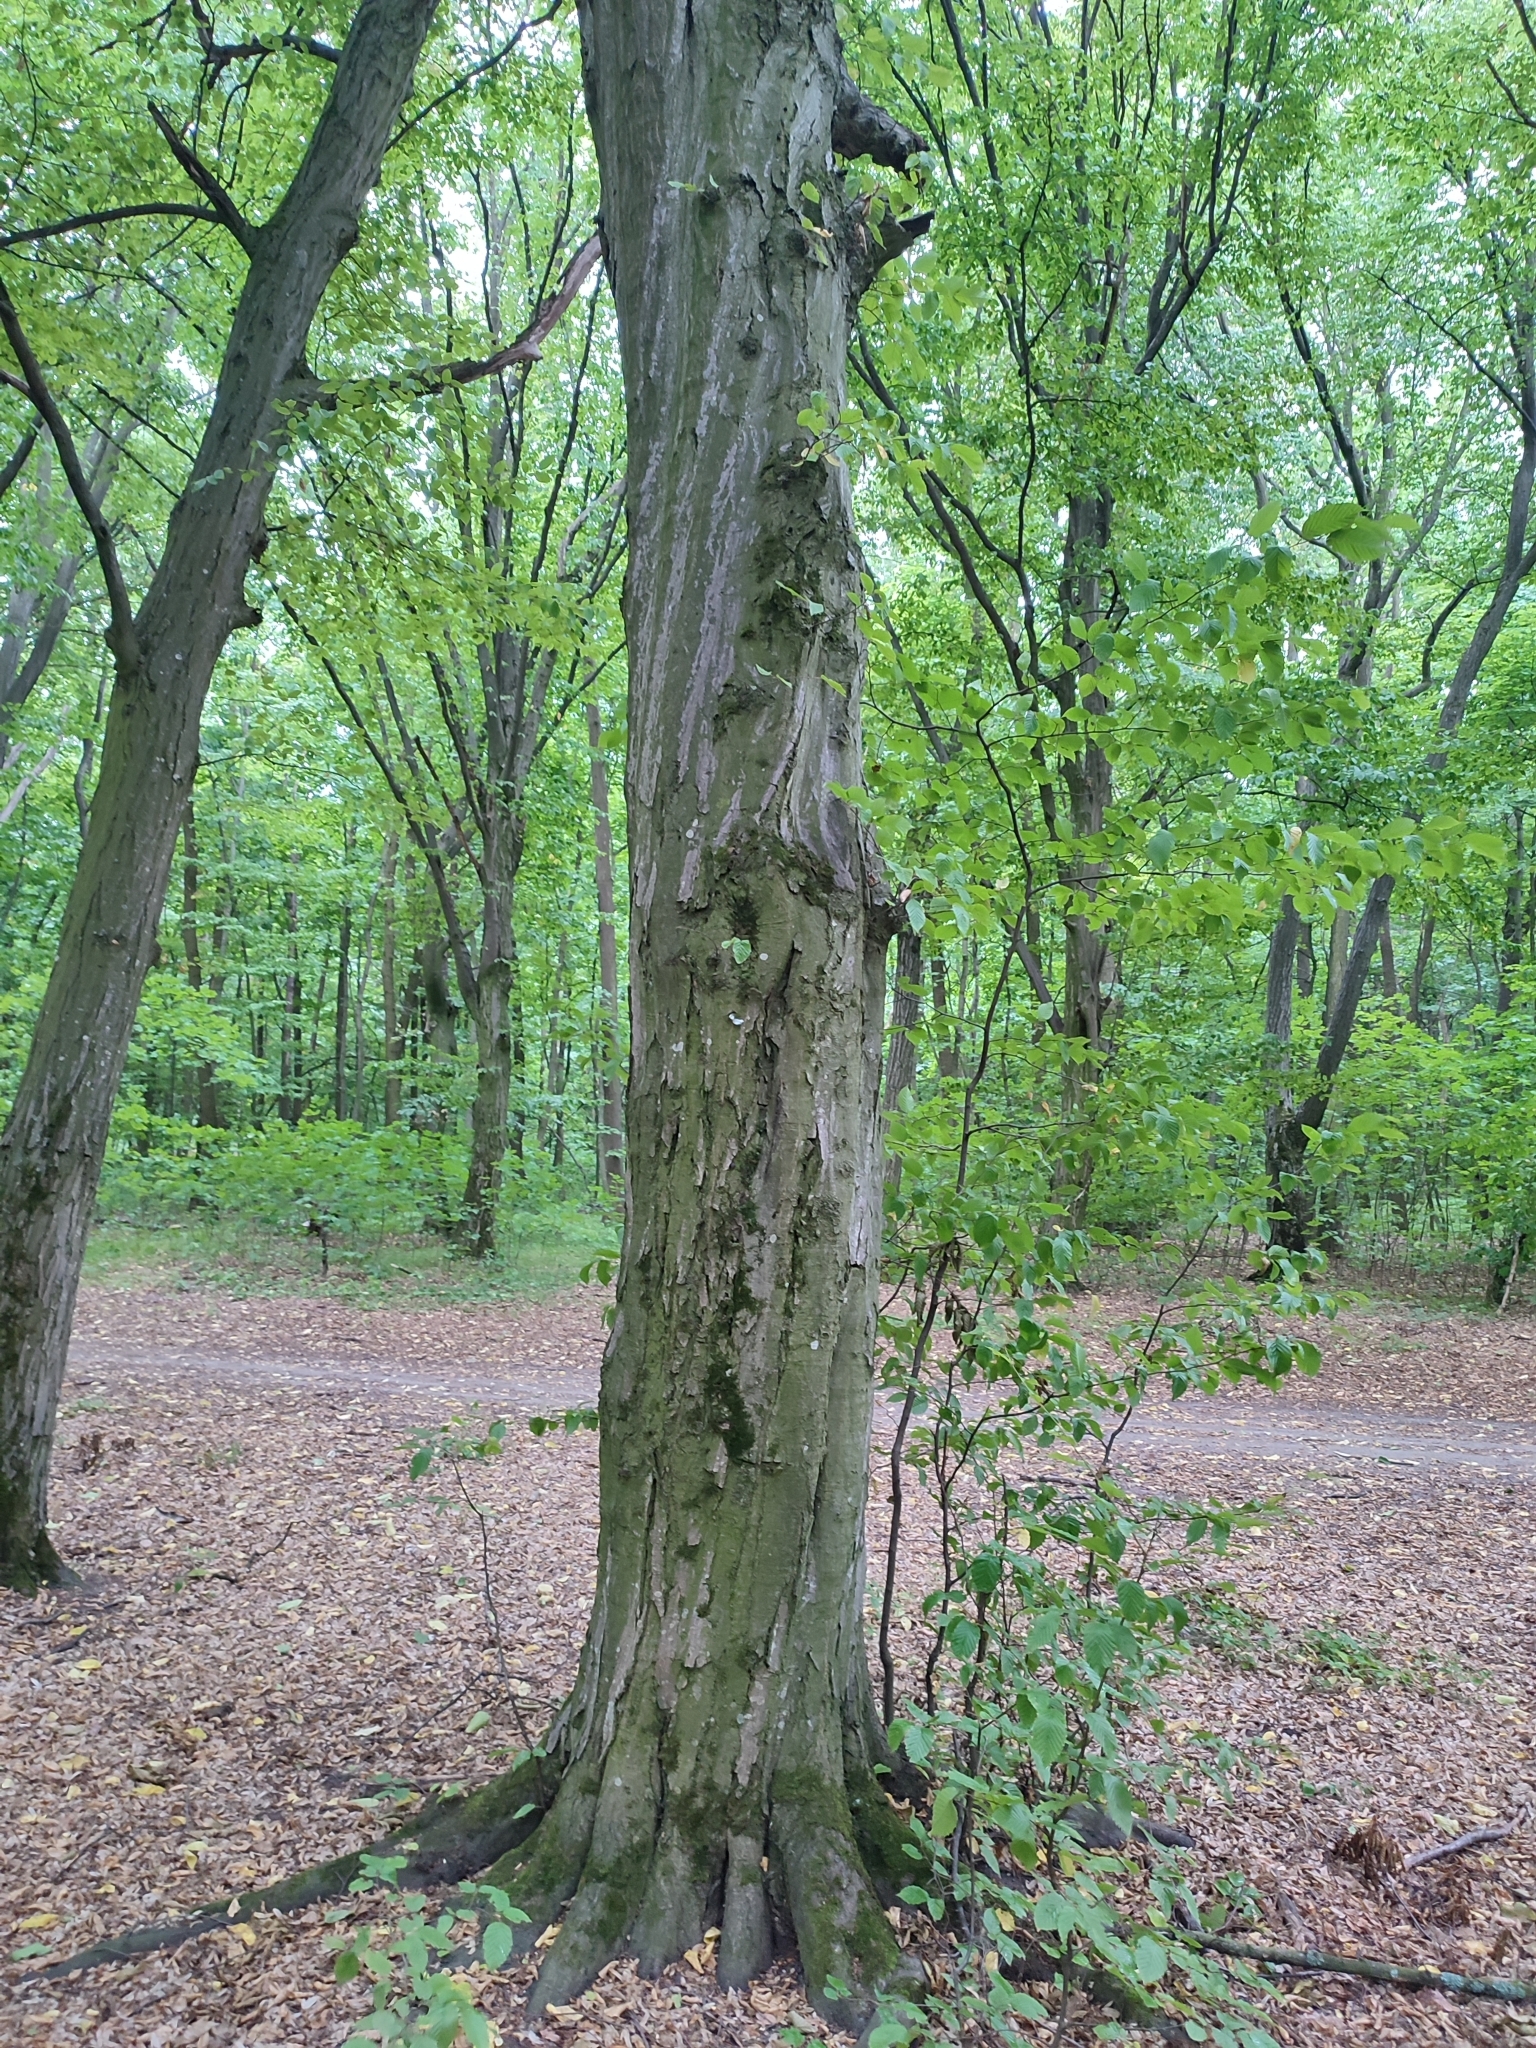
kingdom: Plantae
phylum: Tracheophyta
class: Magnoliopsida
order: Fagales
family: Betulaceae
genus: Carpinus
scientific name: Carpinus betulus
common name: Hornbeam
